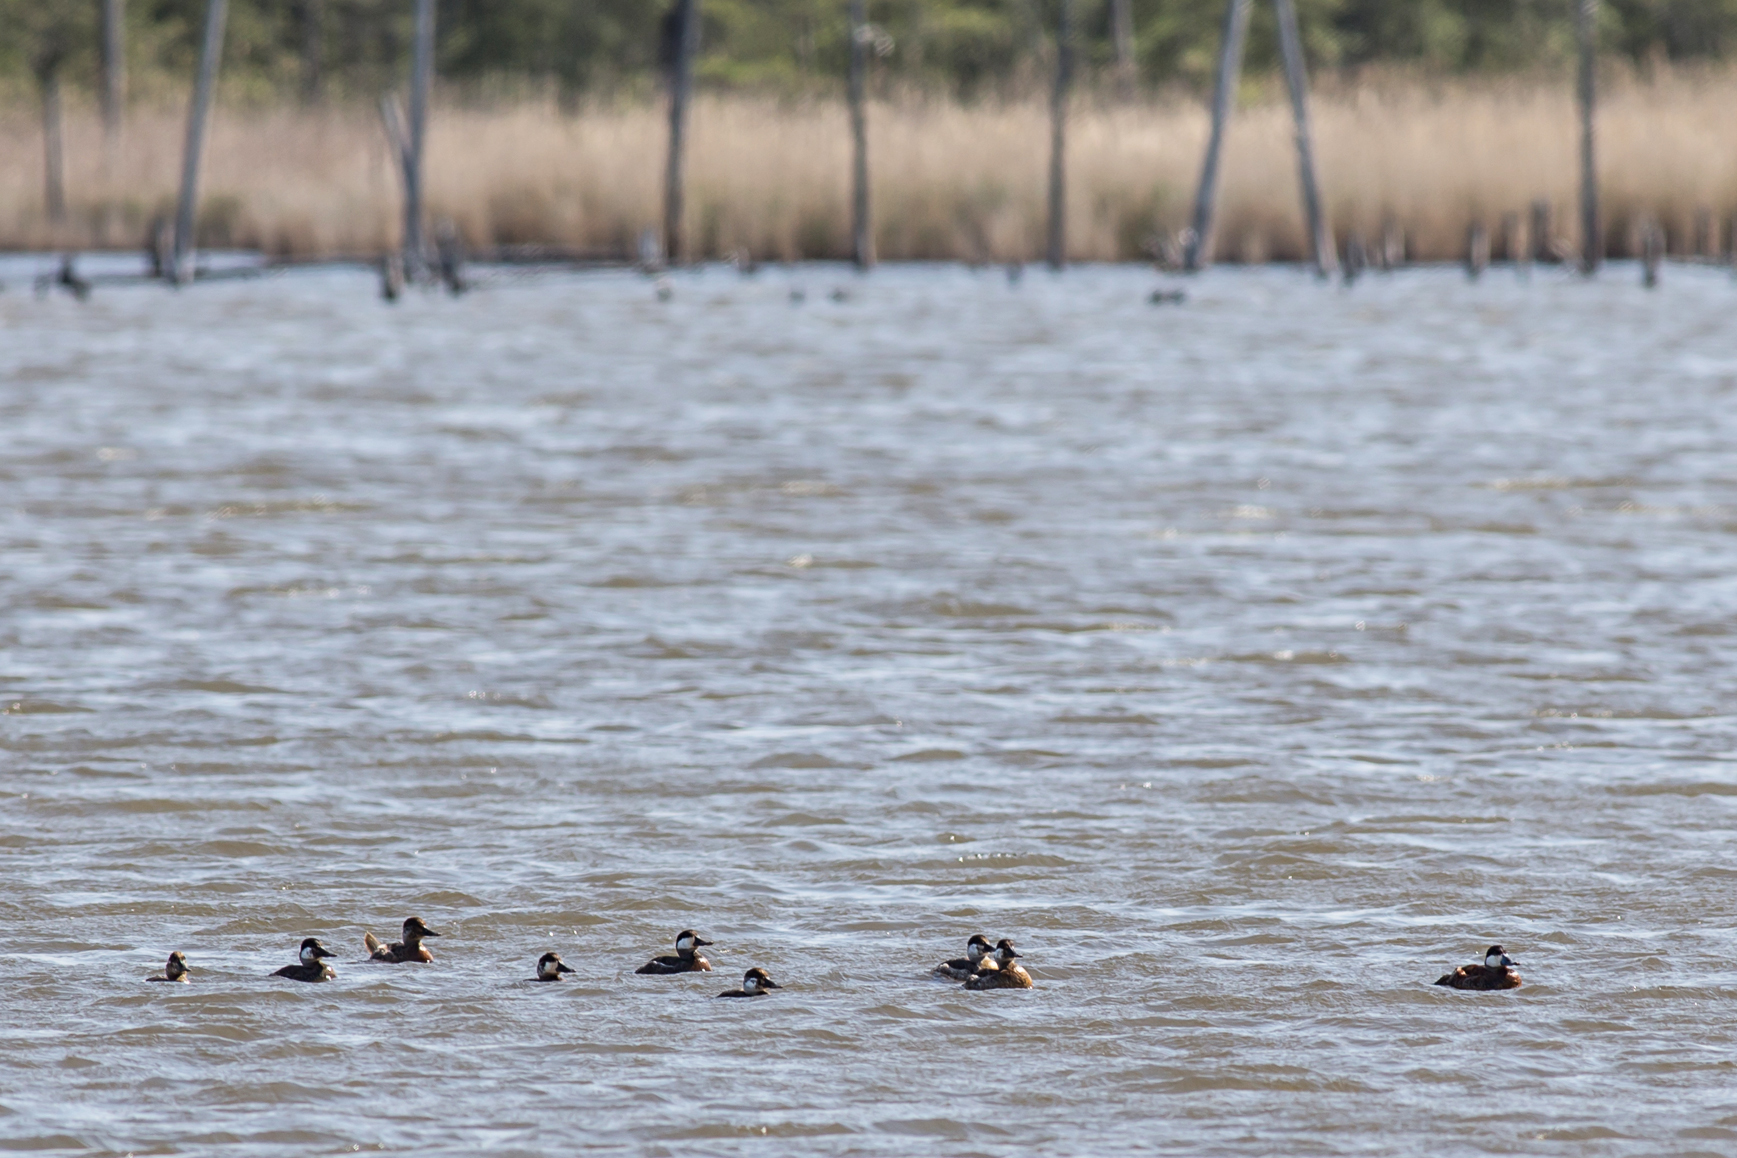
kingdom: Animalia
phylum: Chordata
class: Aves
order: Anseriformes
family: Anatidae
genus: Oxyura
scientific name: Oxyura jamaicensis
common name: Ruddy duck
